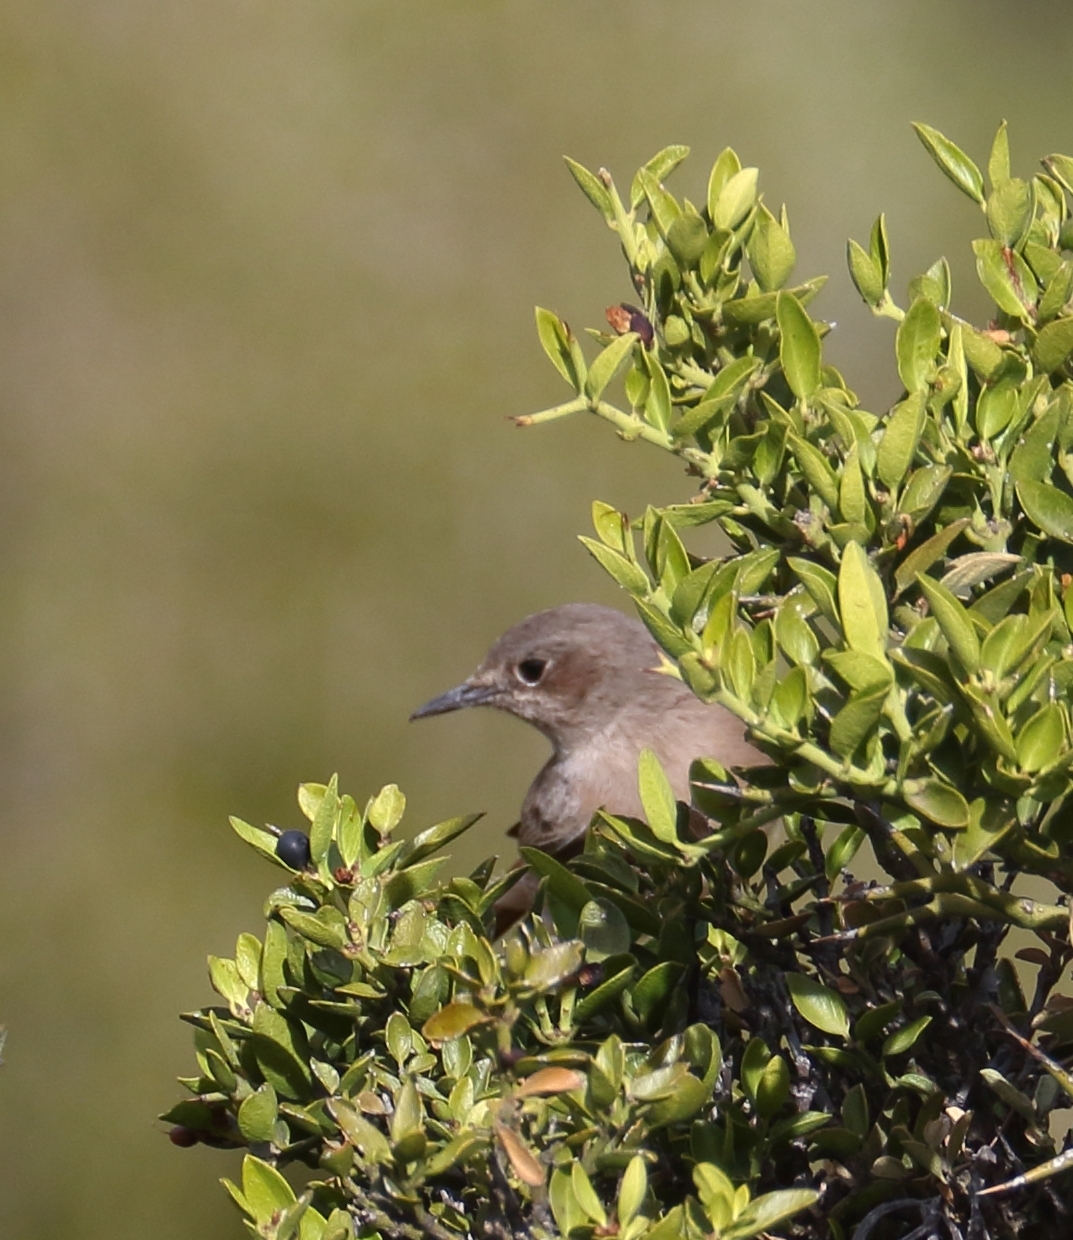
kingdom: Animalia
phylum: Chordata
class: Aves
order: Passeriformes
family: Muscicapidae
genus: Oenanthe
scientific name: Oenanthe familiaris
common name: Familiar chat
